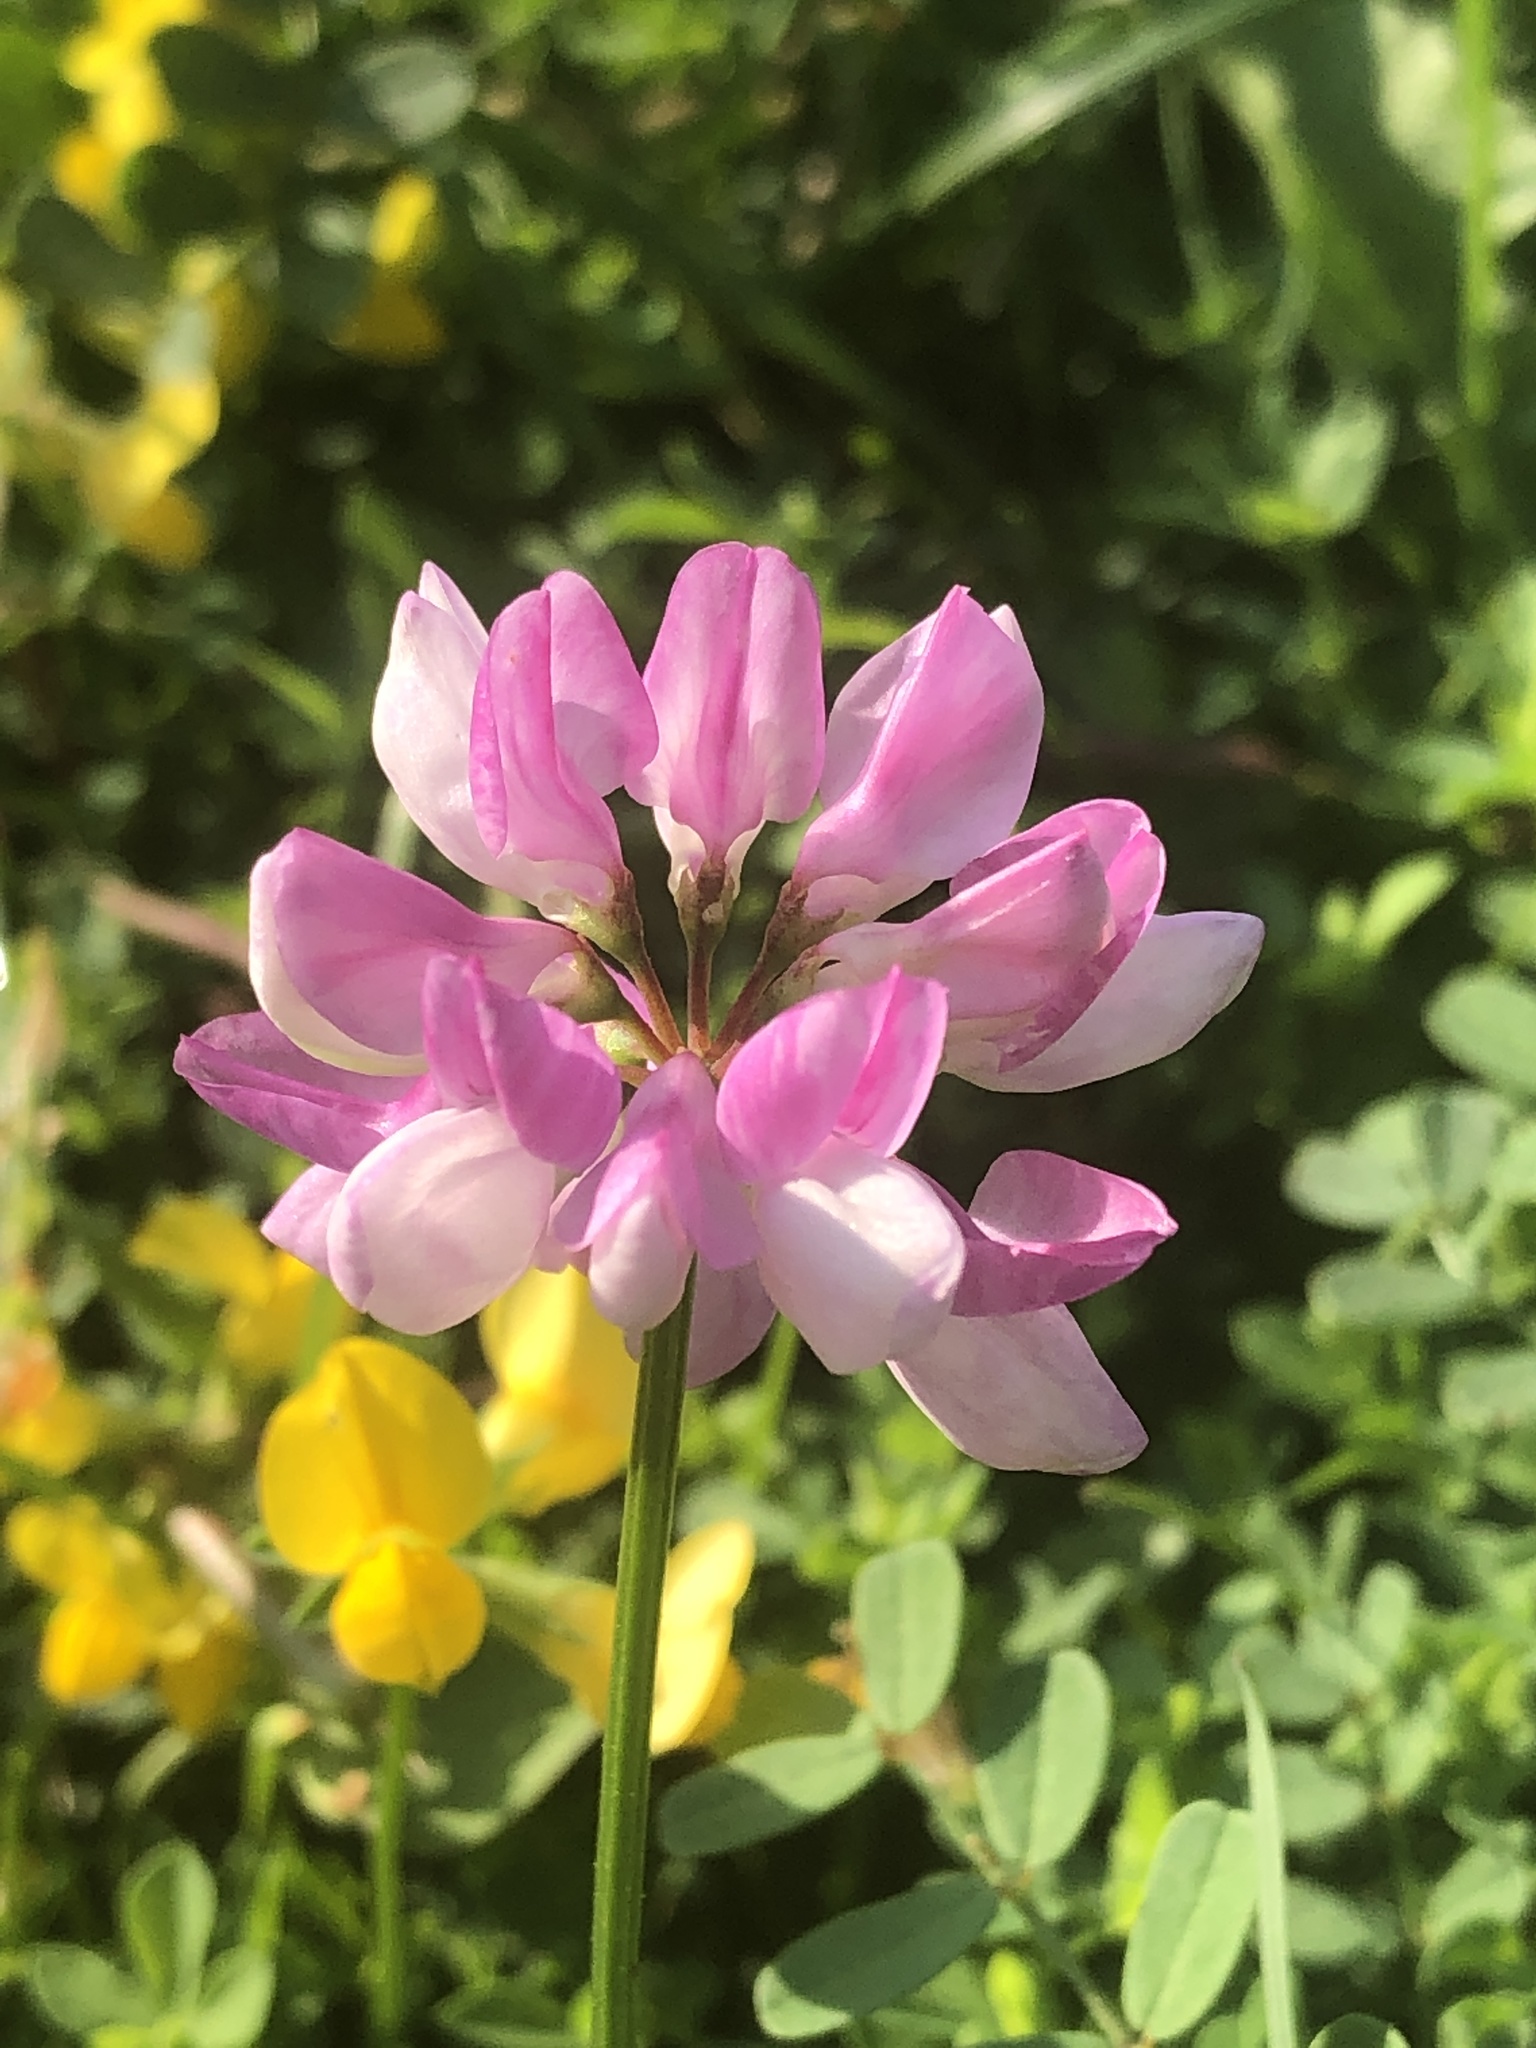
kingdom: Plantae
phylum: Tracheophyta
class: Magnoliopsida
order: Fabales
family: Fabaceae
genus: Coronilla
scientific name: Coronilla varia
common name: Crownvetch
